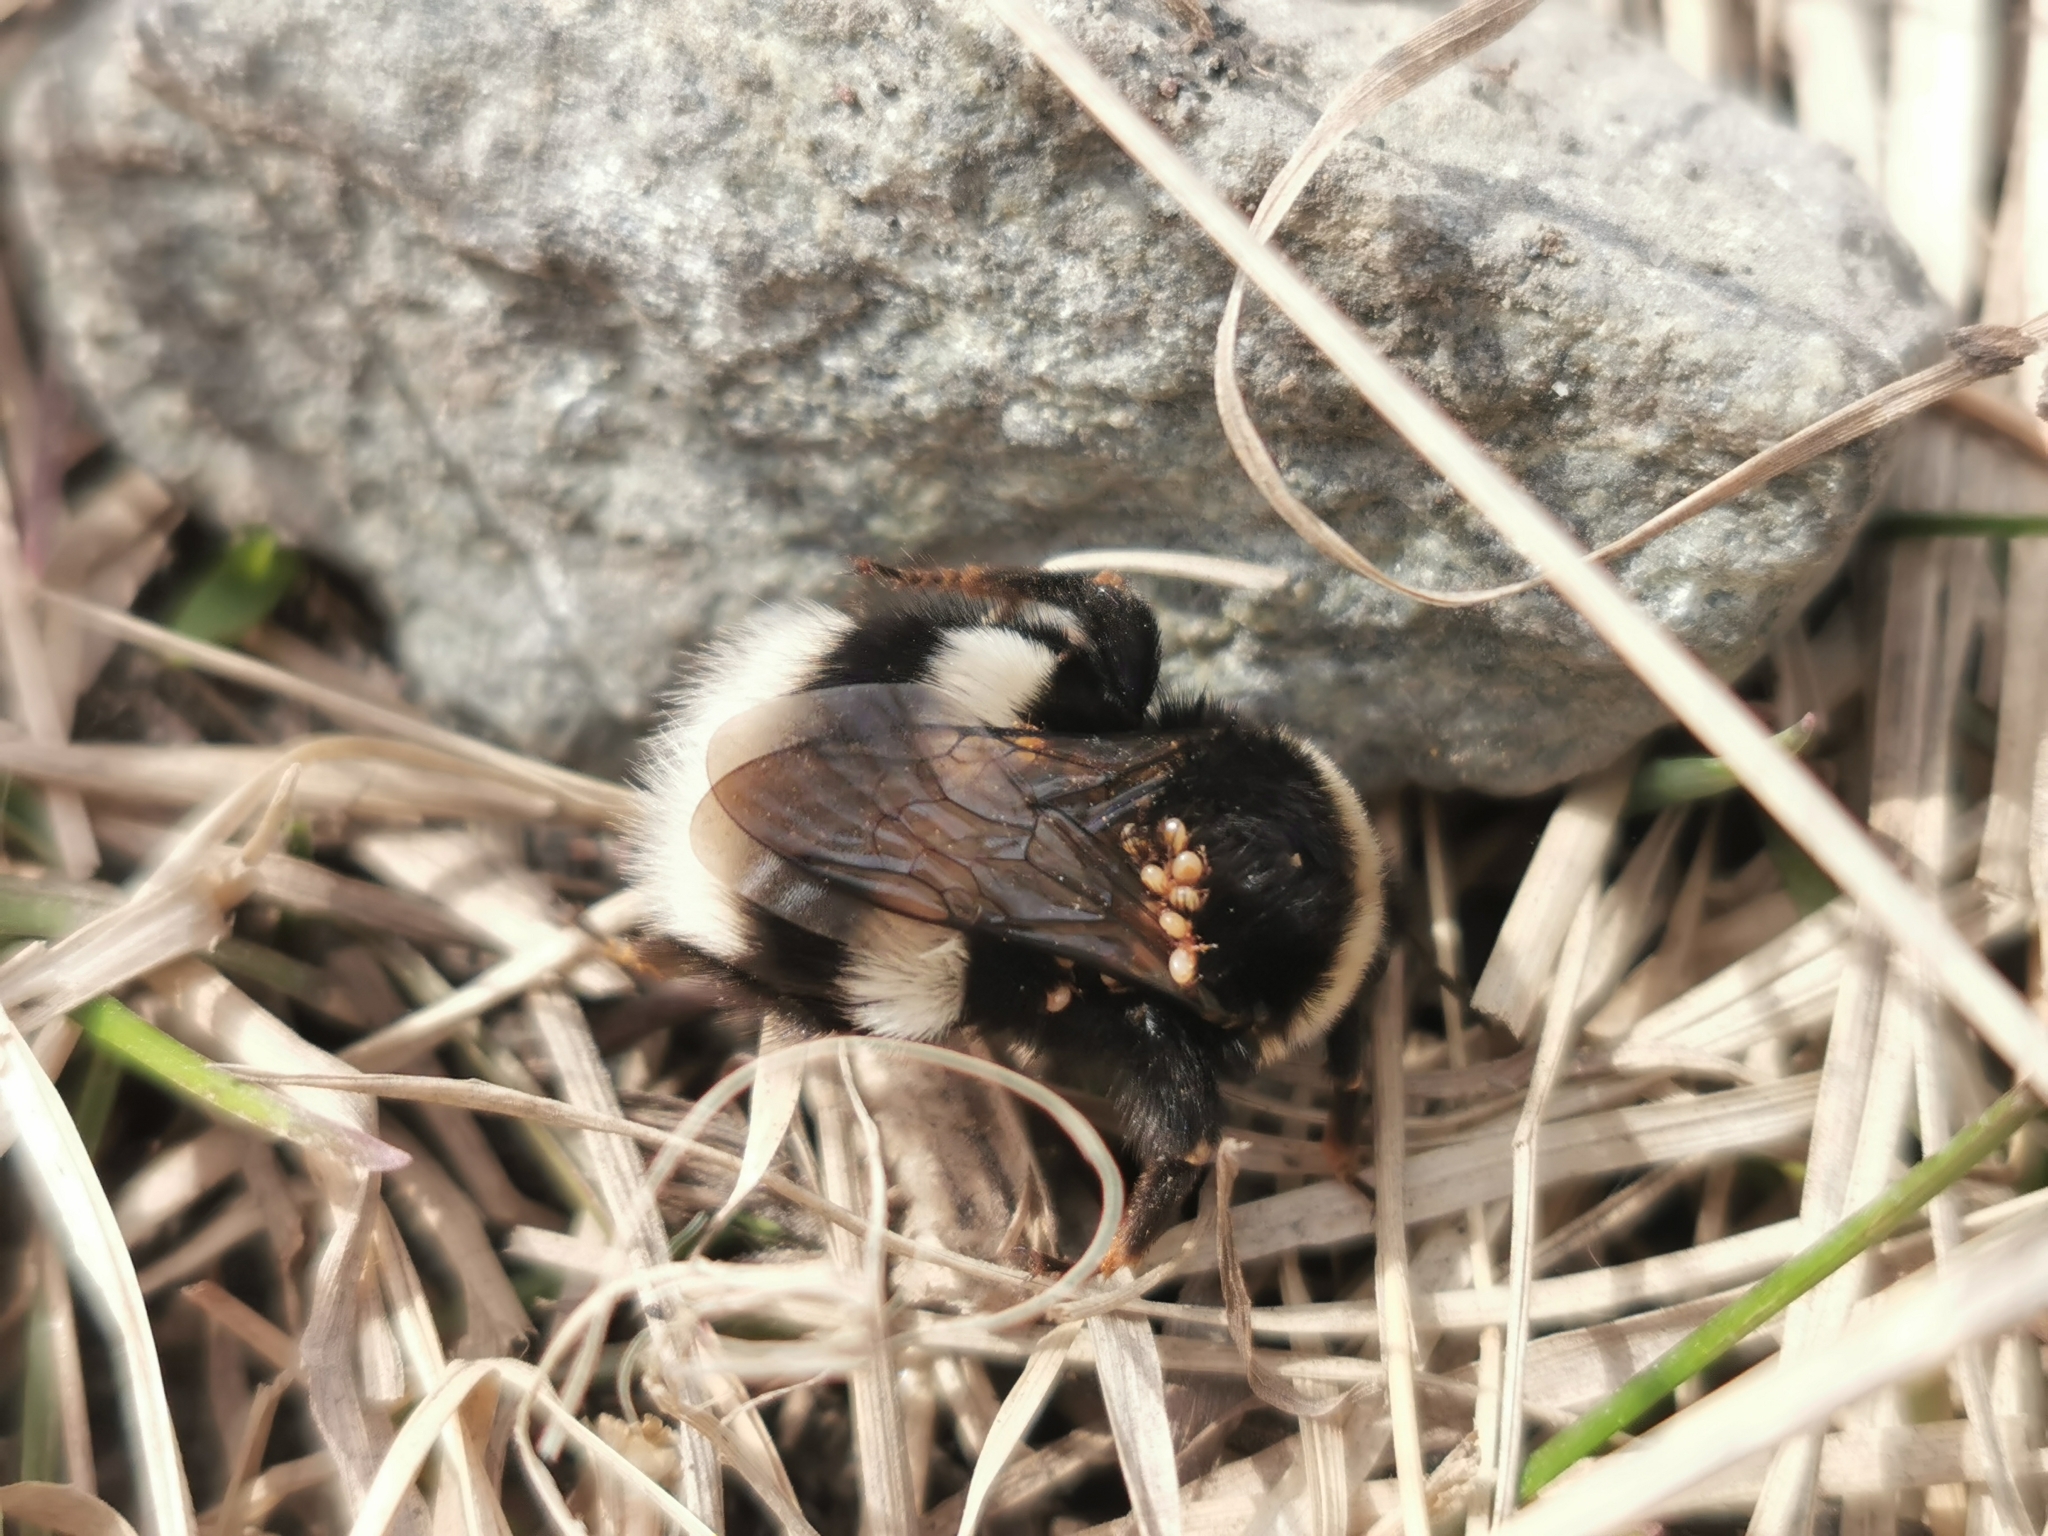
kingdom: Animalia
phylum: Arthropoda
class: Insecta
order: Hymenoptera
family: Apidae
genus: Bombus
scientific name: Bombus cryptarum
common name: Cryptic bumblebee
